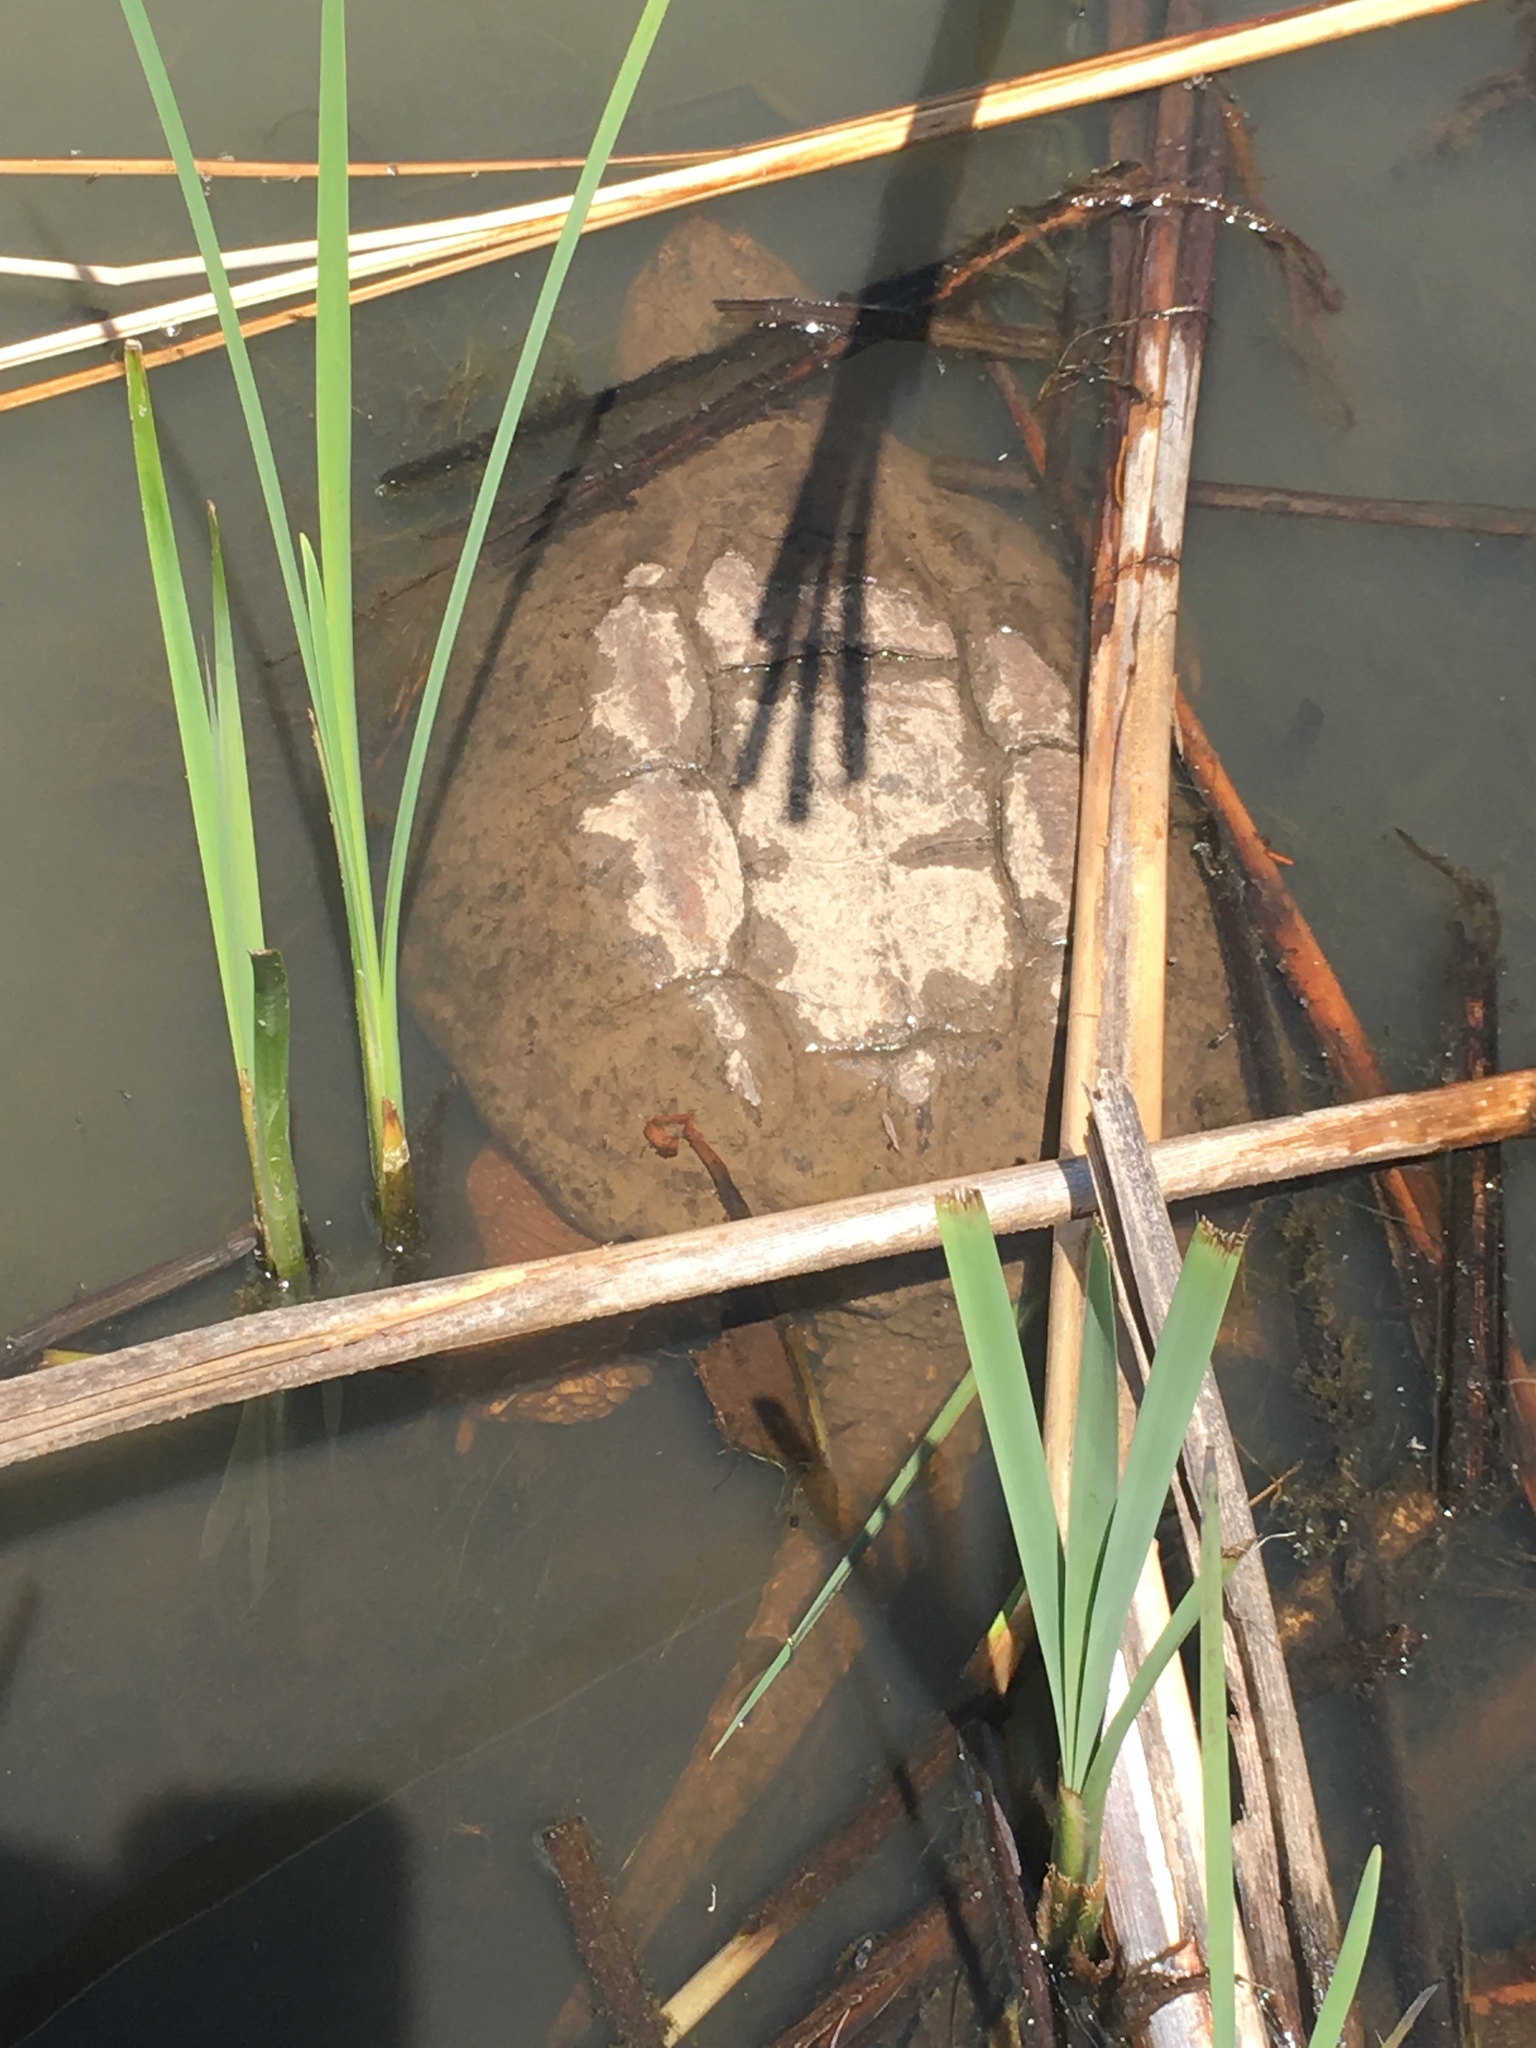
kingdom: Animalia
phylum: Chordata
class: Testudines
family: Chelydridae
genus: Chelydra
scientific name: Chelydra serpentina
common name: Common snapping turtle
